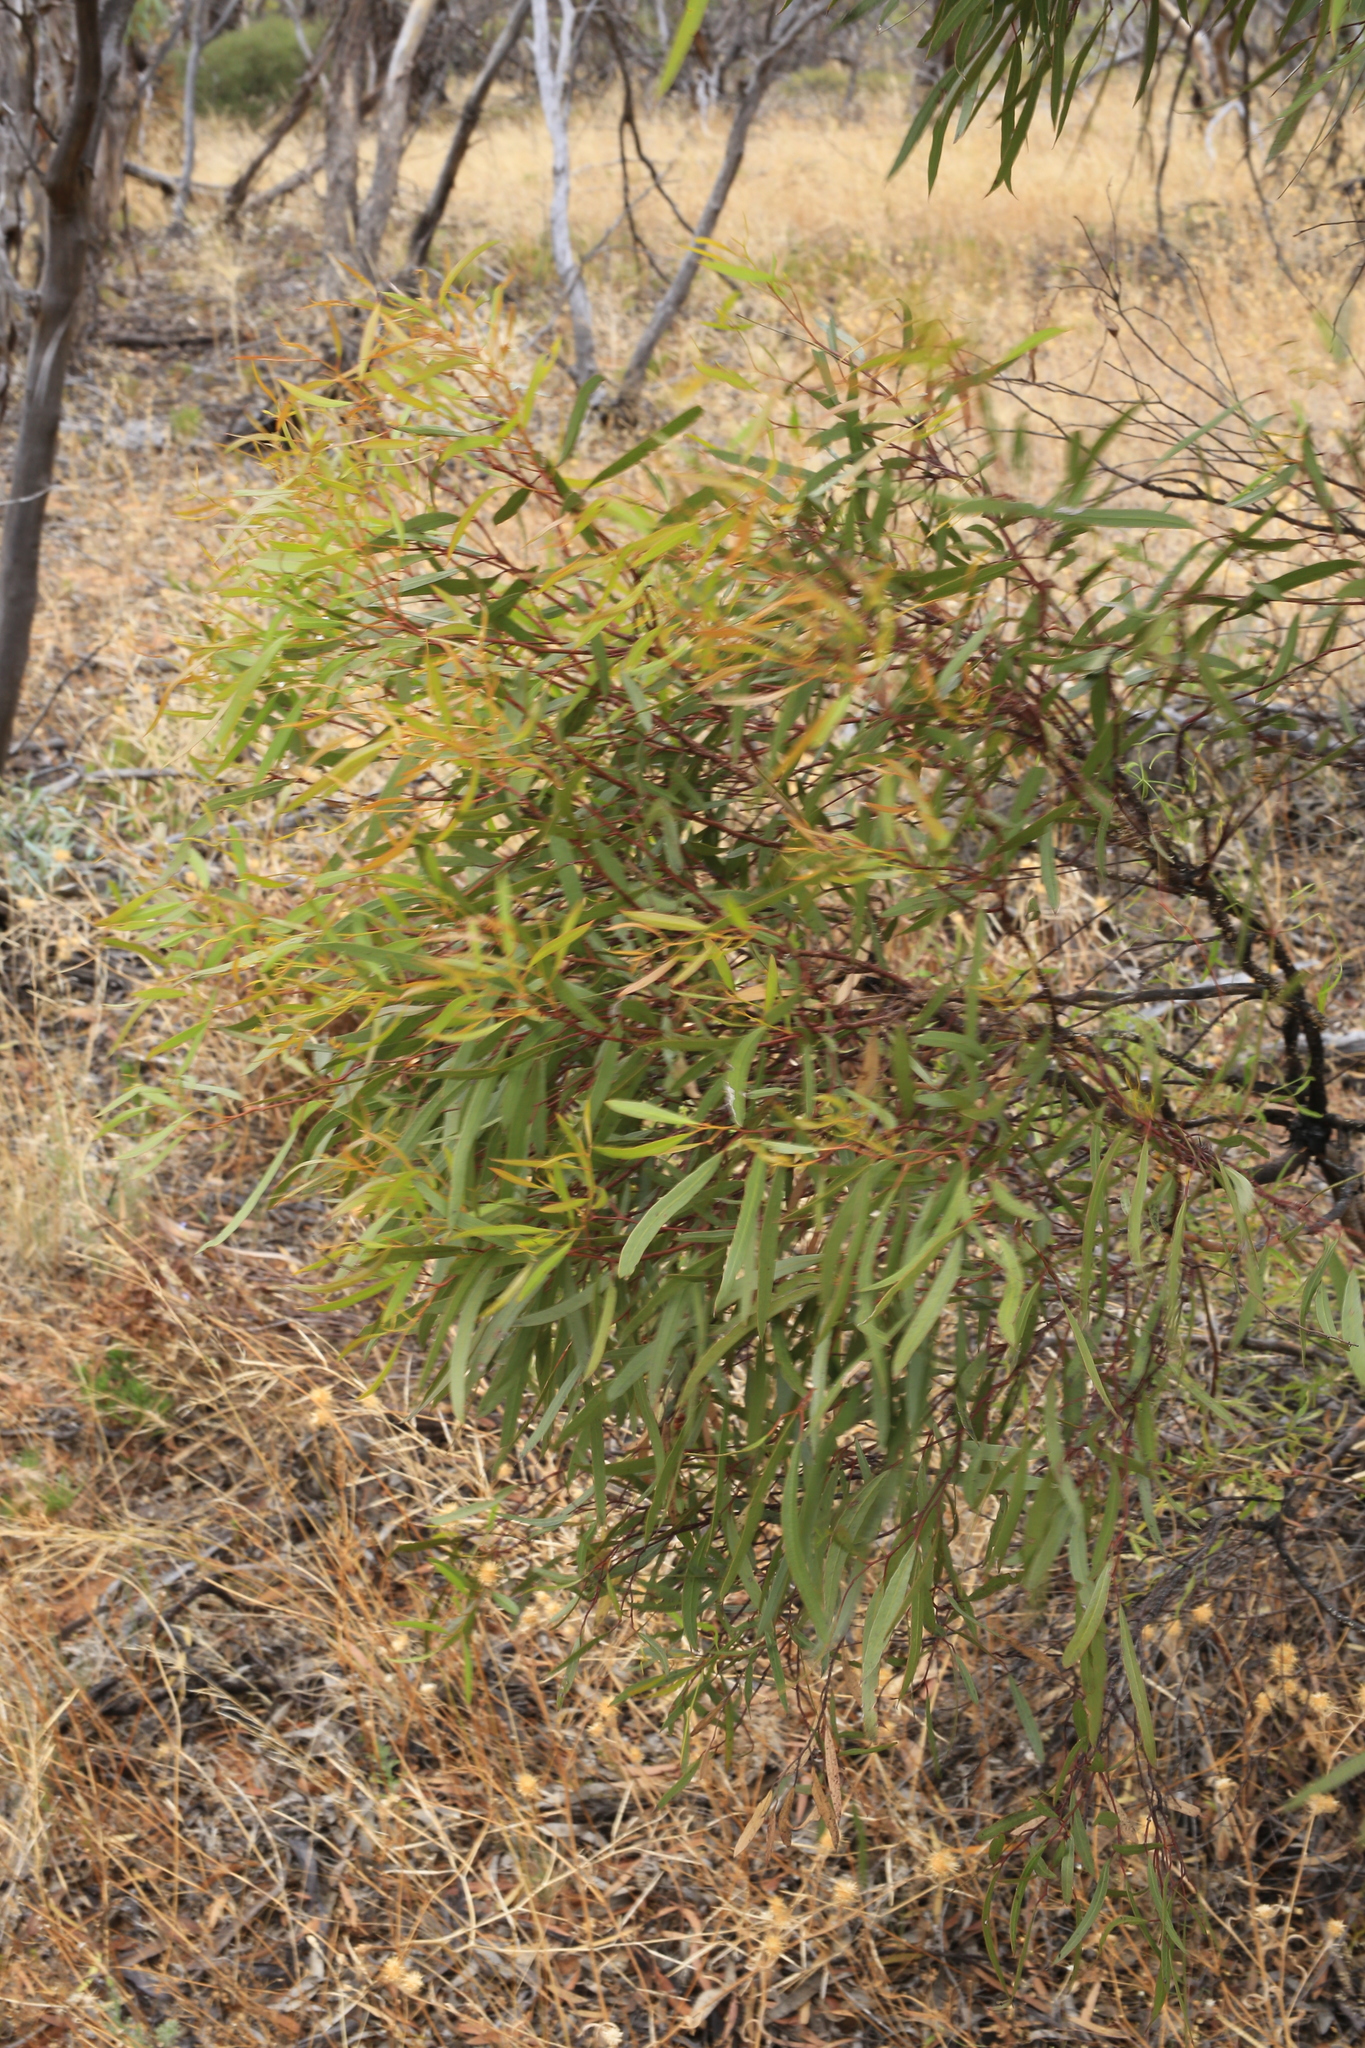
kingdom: Plantae
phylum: Tracheophyta
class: Magnoliopsida
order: Myrtales
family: Myrtaceae
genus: Eucalyptus
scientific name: Eucalyptus foecunda
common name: Freemantle mallee
